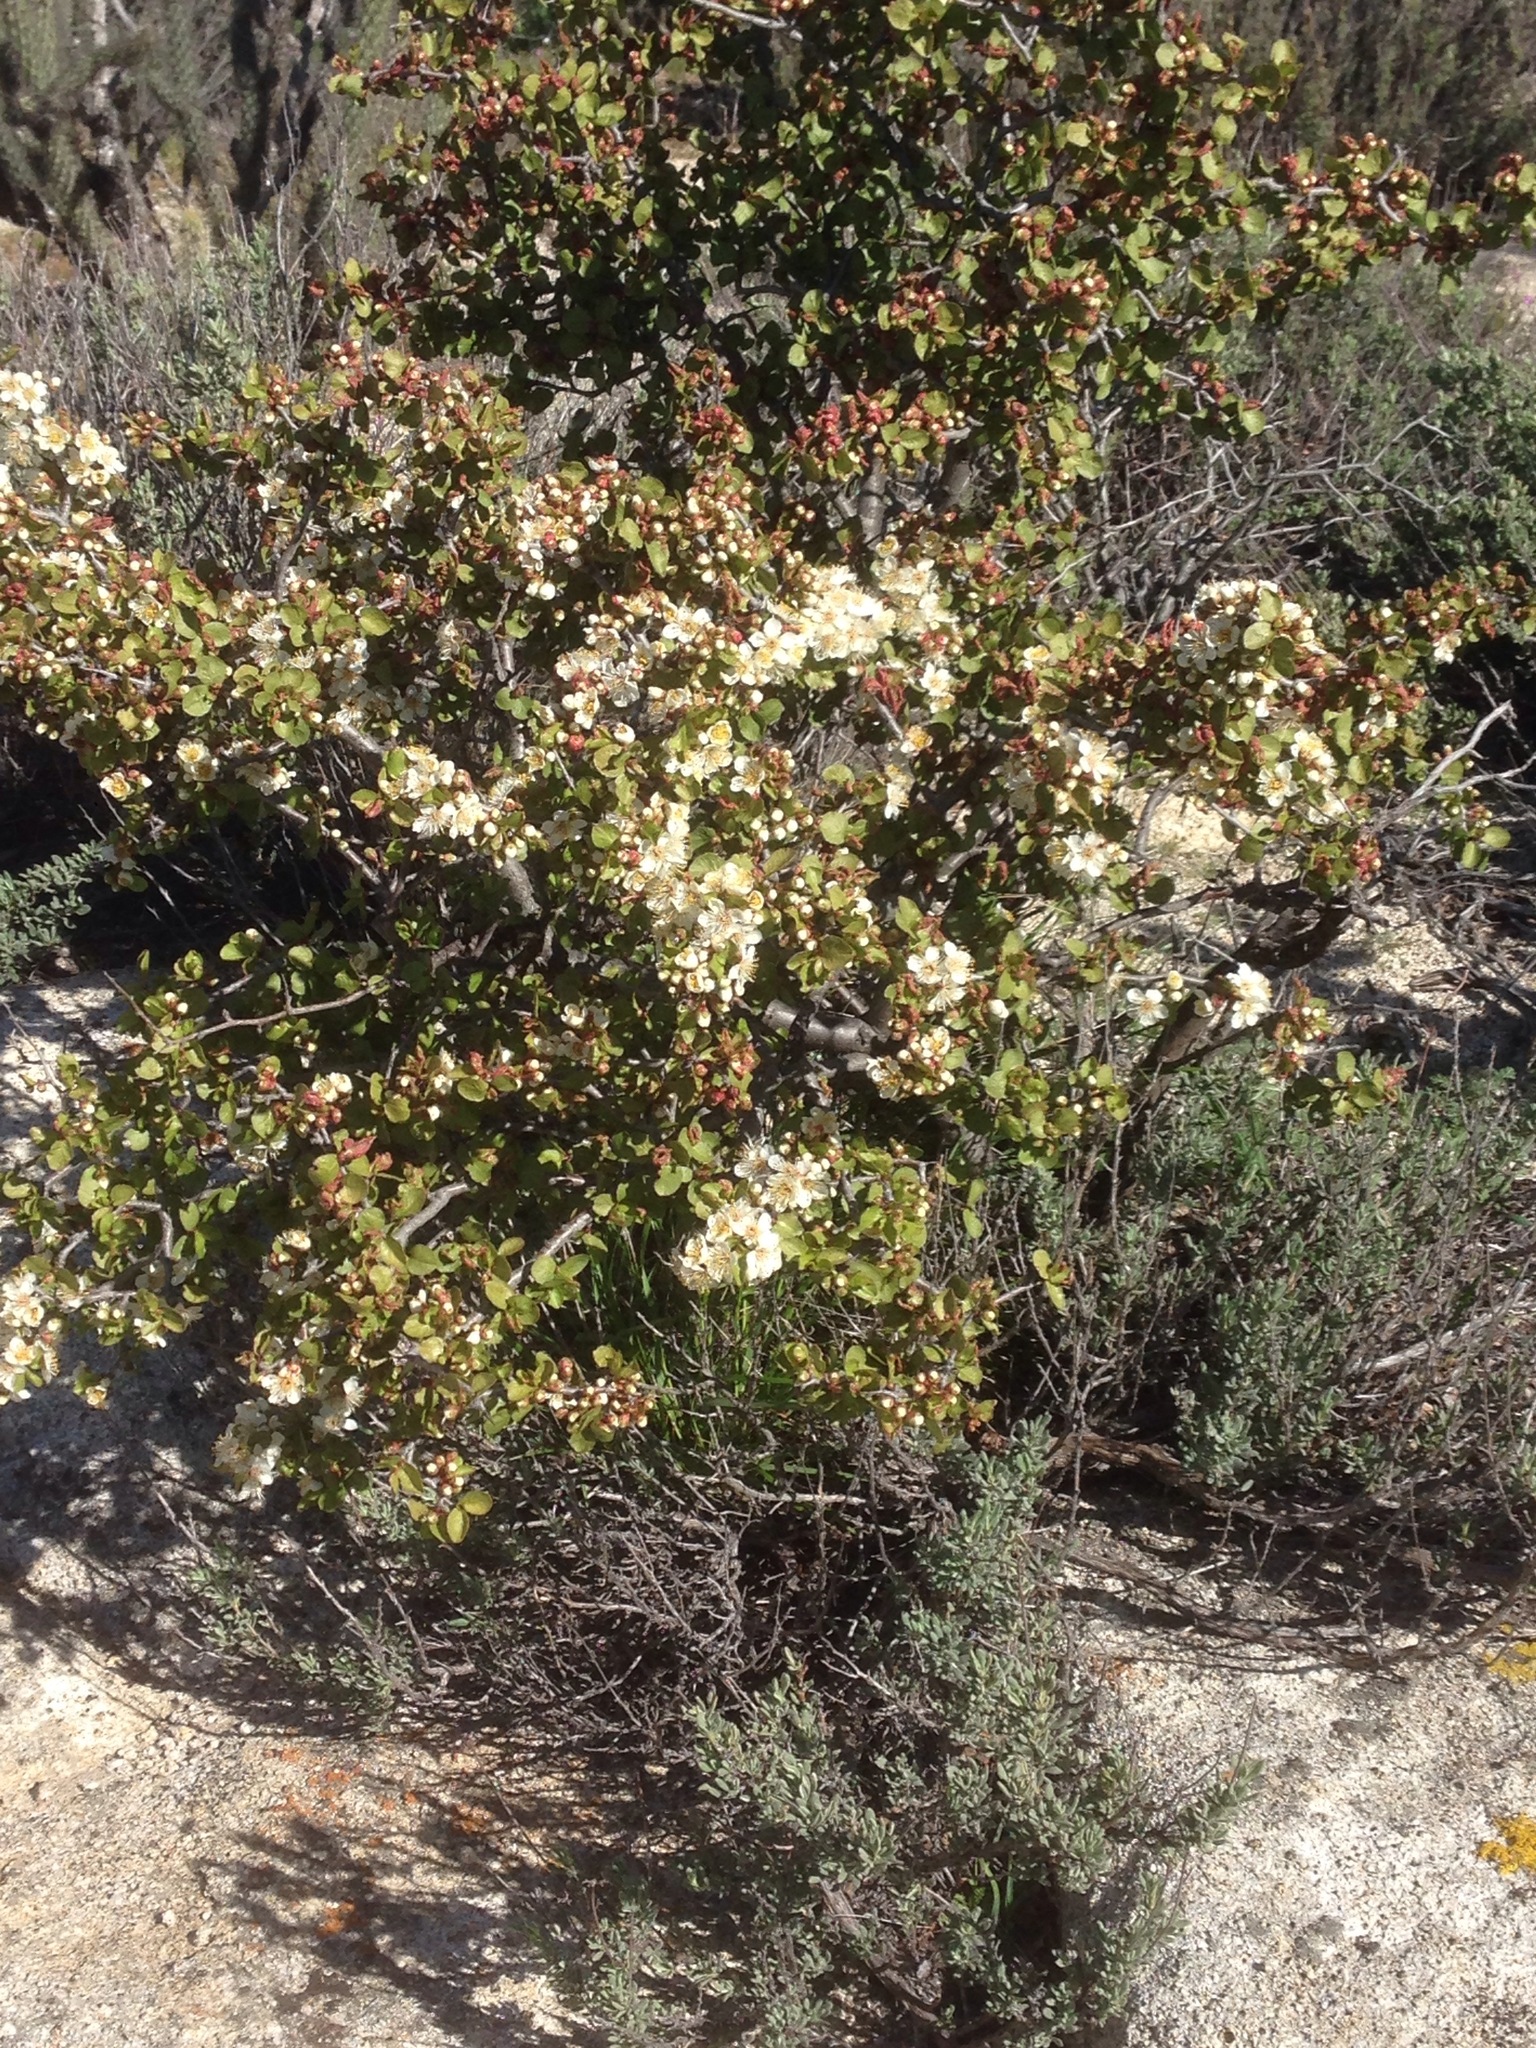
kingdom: Plantae
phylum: Tracheophyta
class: Magnoliopsida
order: Rosales
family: Rosaceae
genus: Prunus
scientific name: Prunus fremontii
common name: Desert apricot
